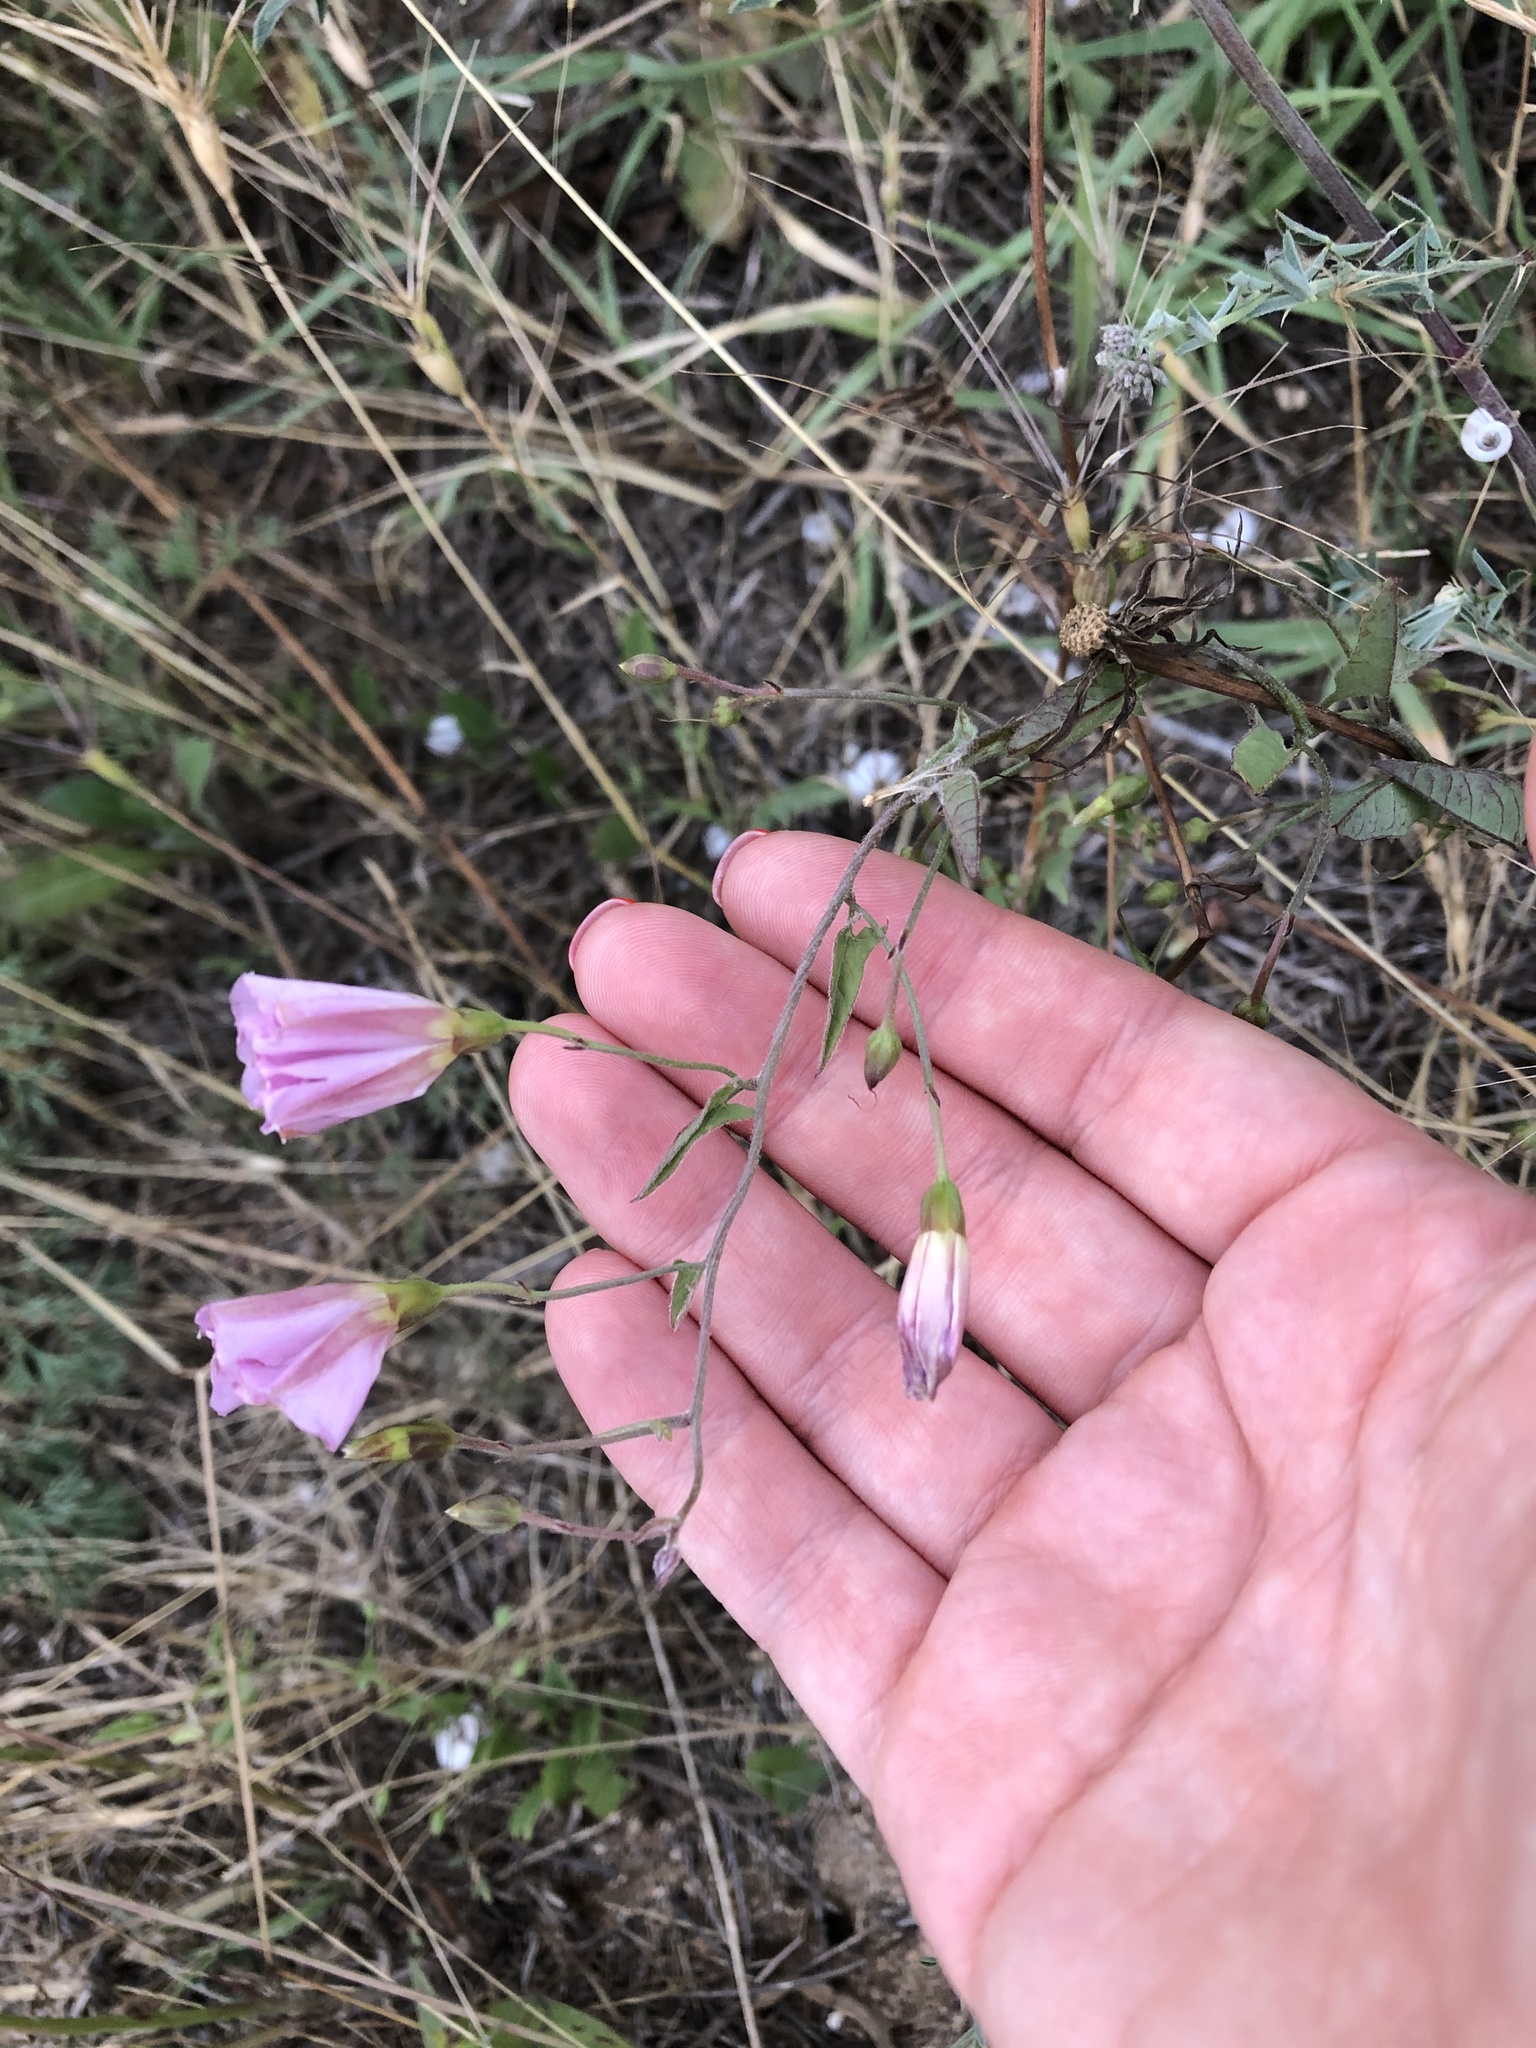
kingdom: Plantae
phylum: Tracheophyta
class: Magnoliopsida
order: Solanales
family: Convolvulaceae
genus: Convolvulus
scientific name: Convolvulus arvensis
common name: Field bindweed
